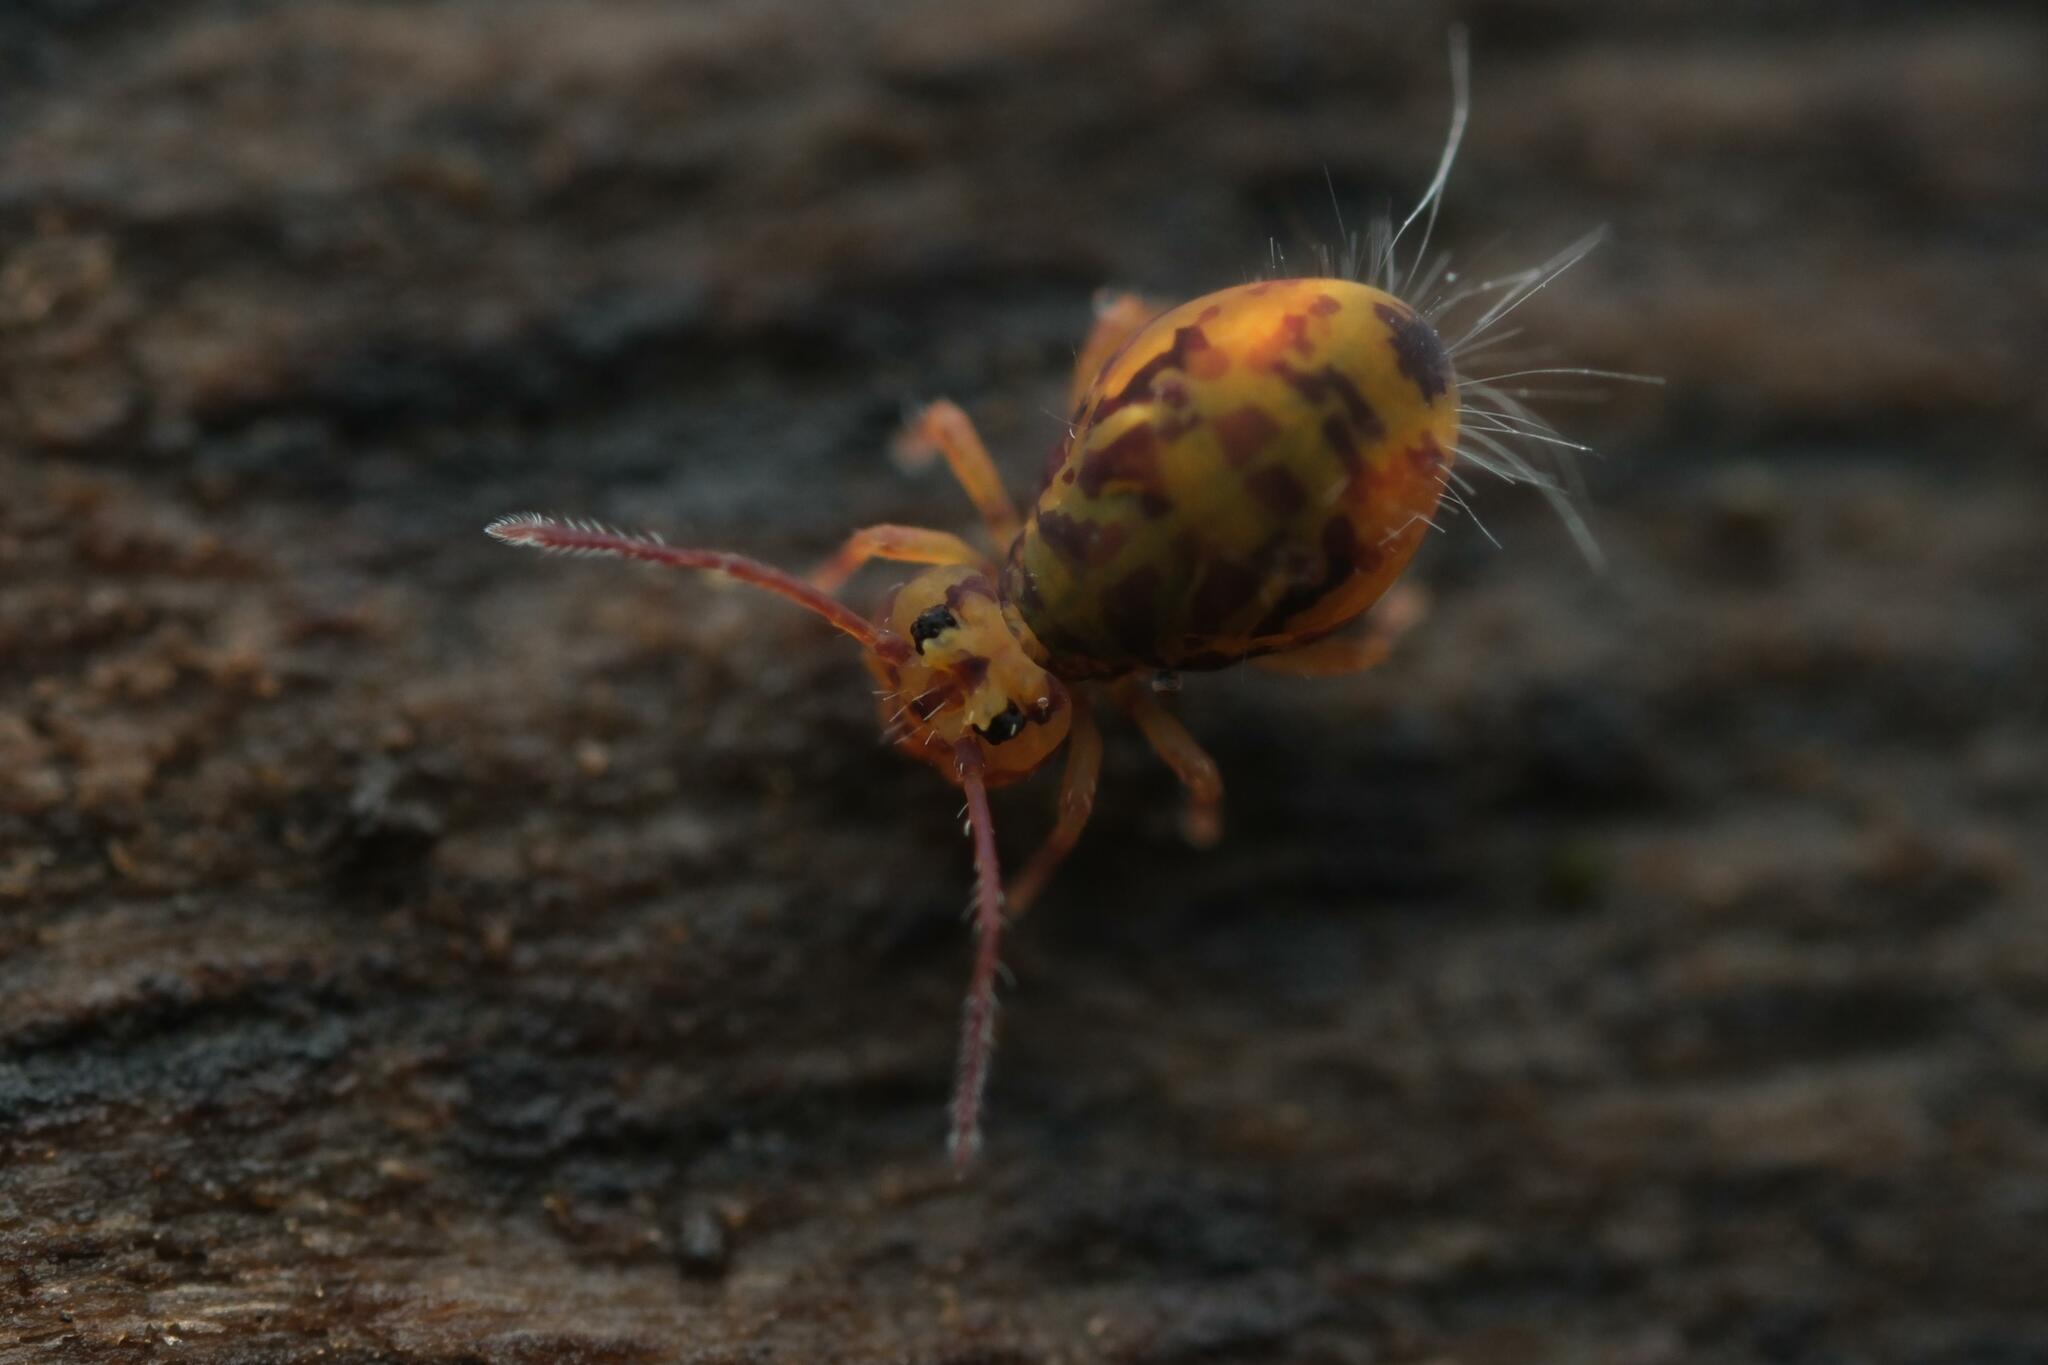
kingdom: Animalia
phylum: Arthropoda
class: Collembola
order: Symphypleona
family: Dicyrtomidae
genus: Dicyrtomina
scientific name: Dicyrtomina ornata
